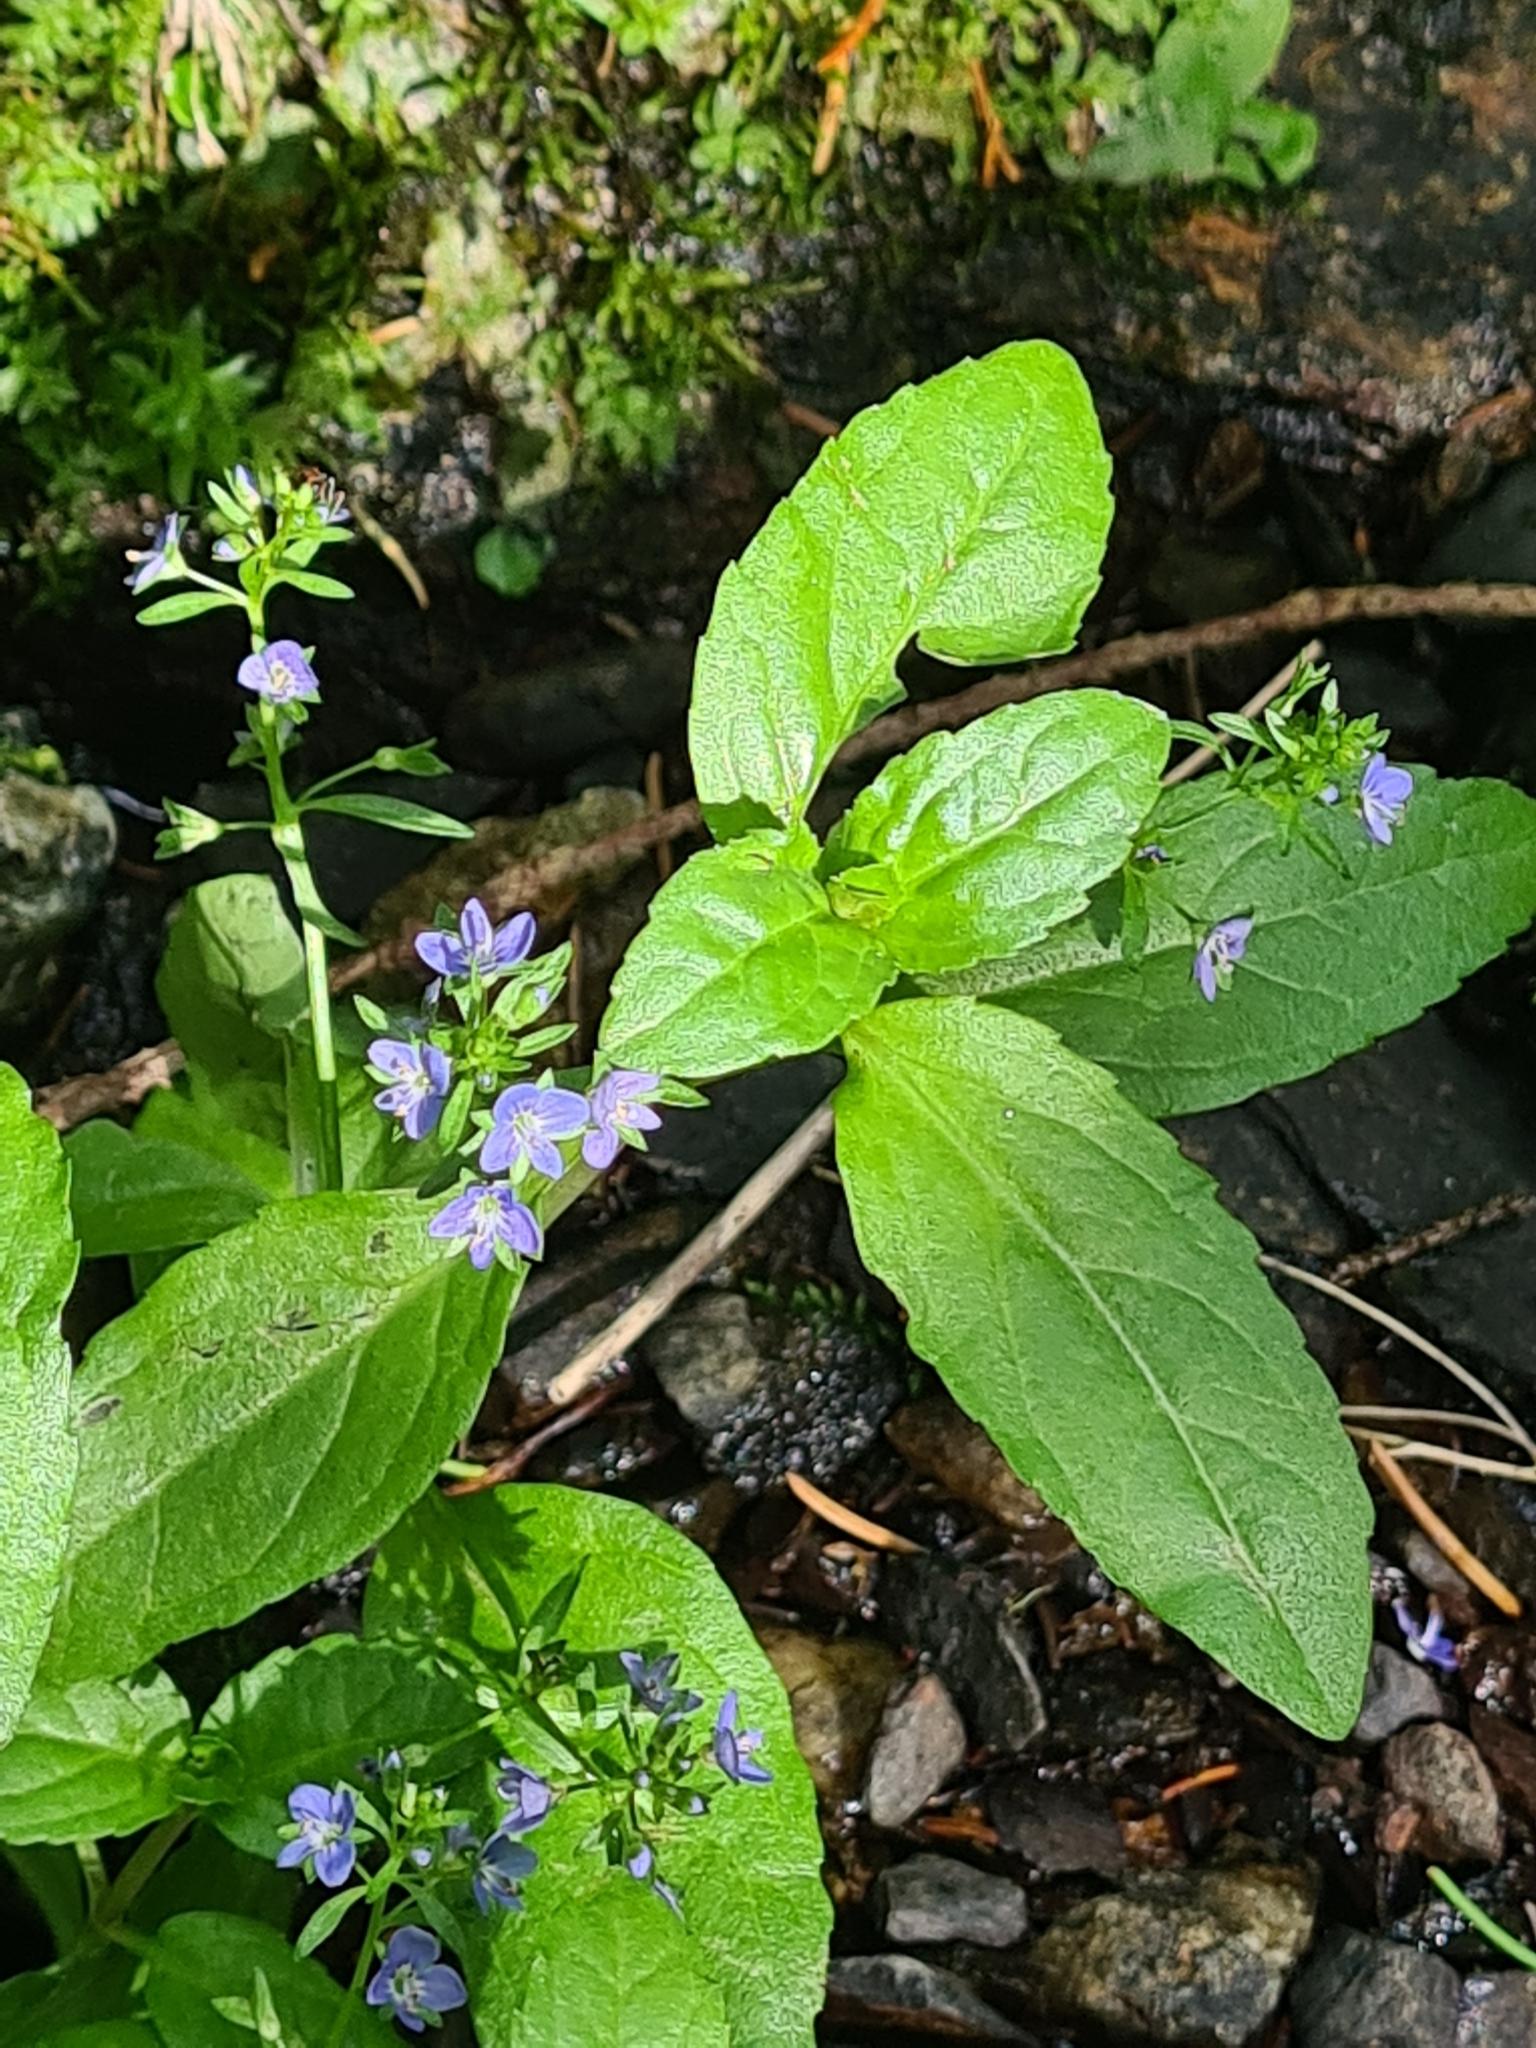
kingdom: Plantae
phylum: Tracheophyta
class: Magnoliopsida
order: Lamiales
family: Plantaginaceae
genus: Veronica
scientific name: Veronica beccabunga
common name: Brooklime
